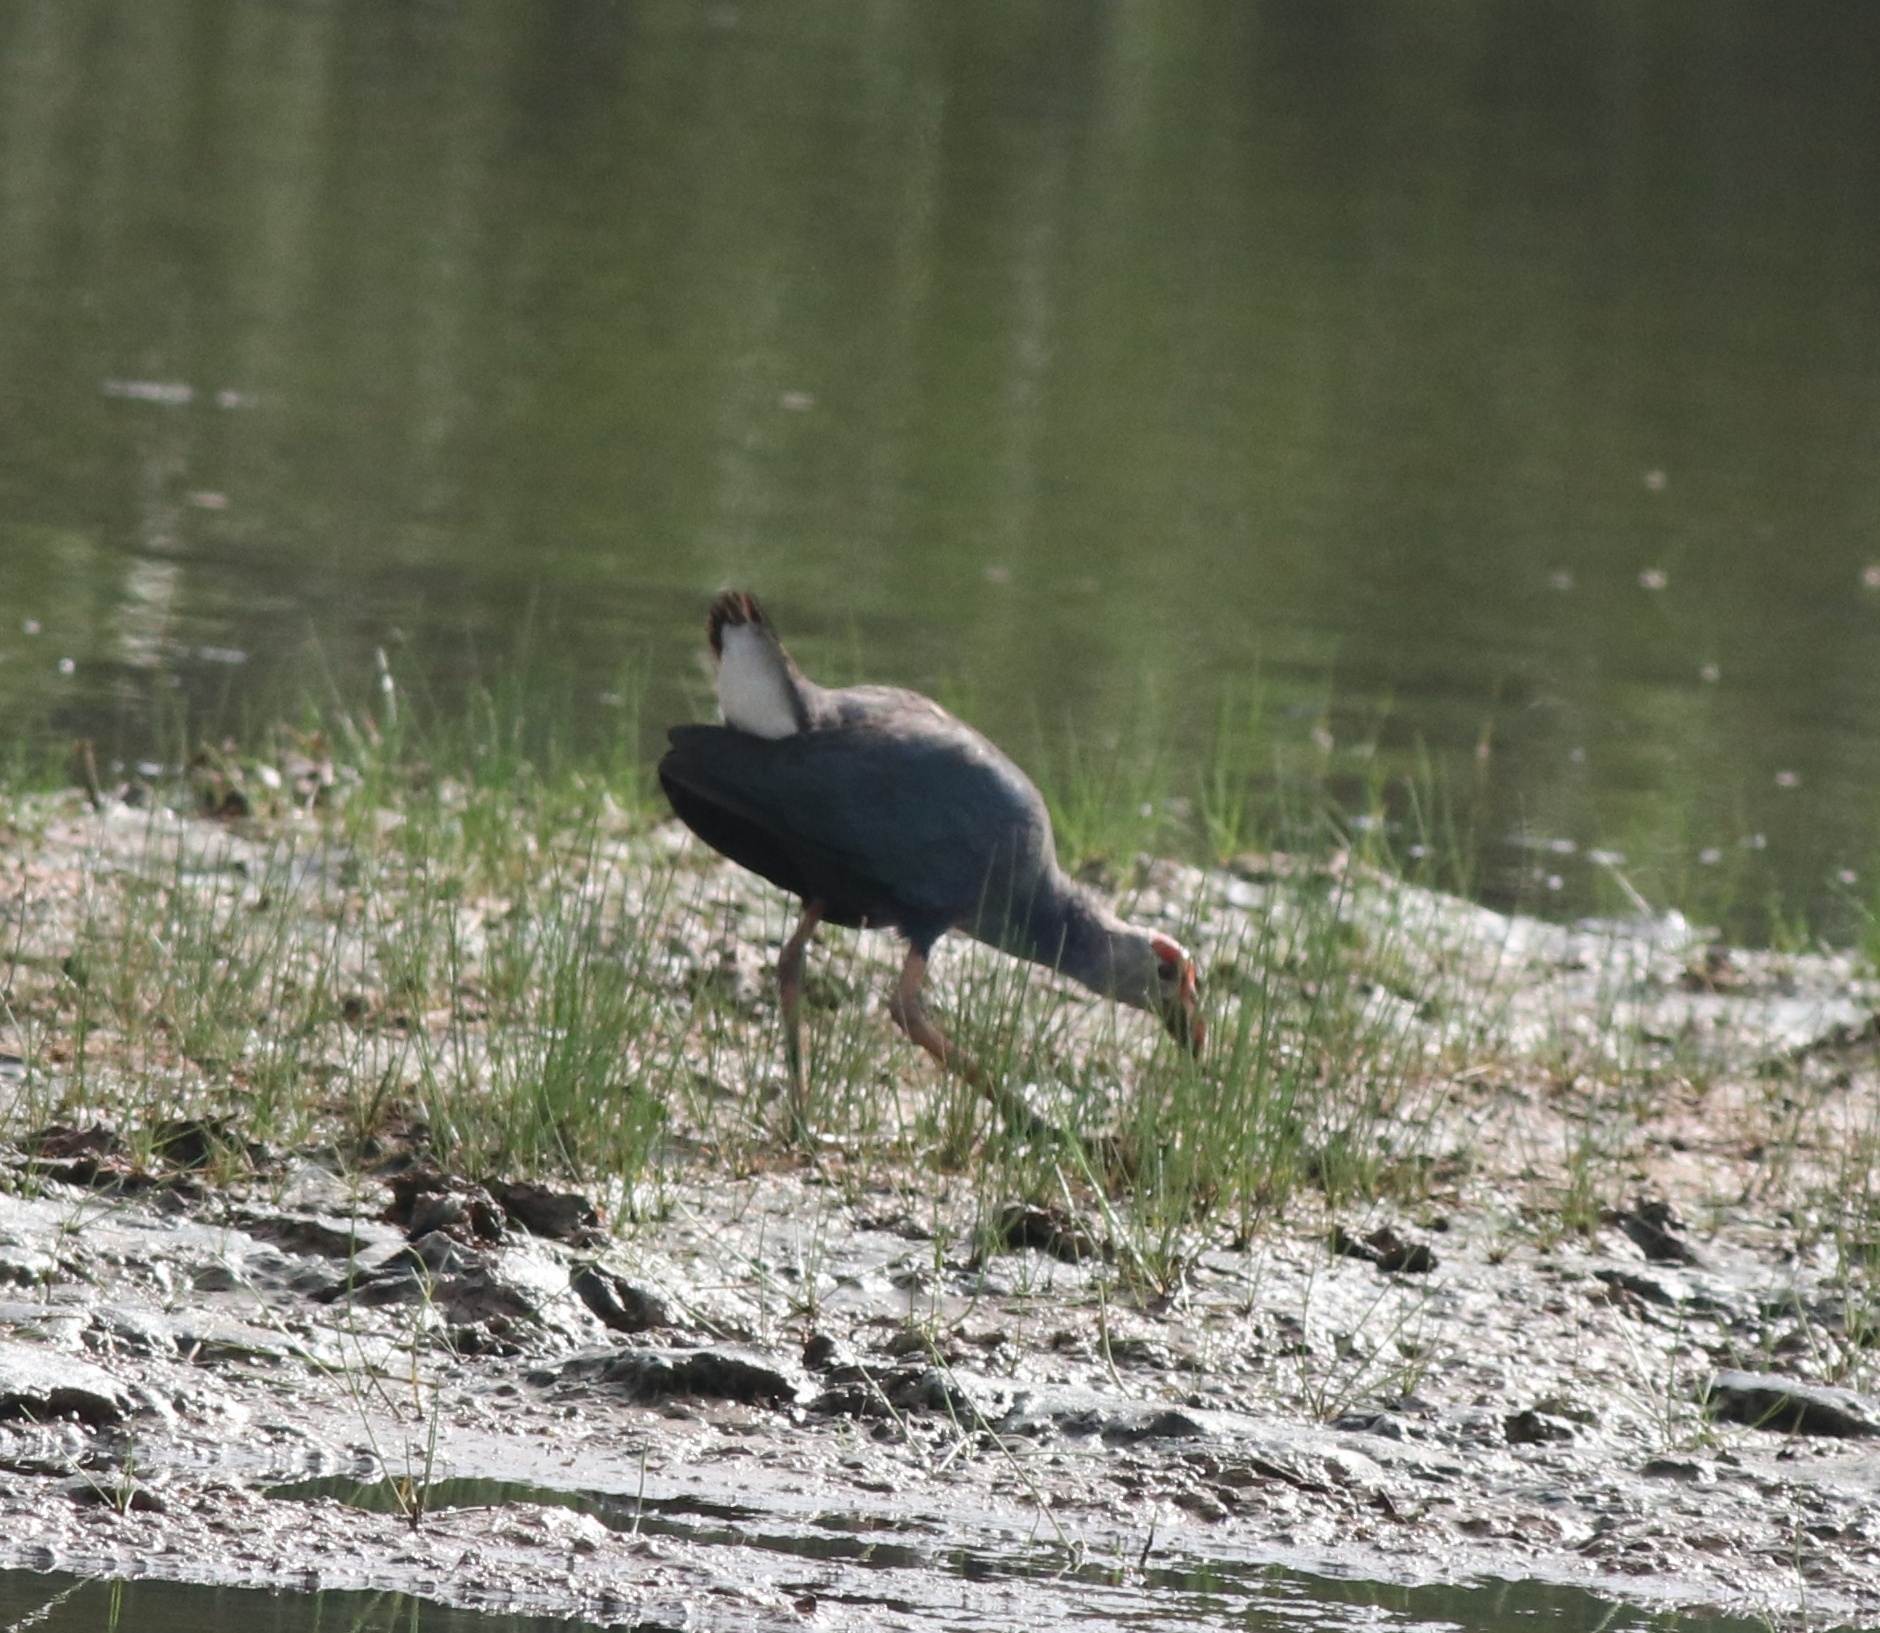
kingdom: Animalia
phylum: Chordata
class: Aves
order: Gruiformes
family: Rallidae
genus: Porphyrio
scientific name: Porphyrio porphyrio
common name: Purple swamphen
